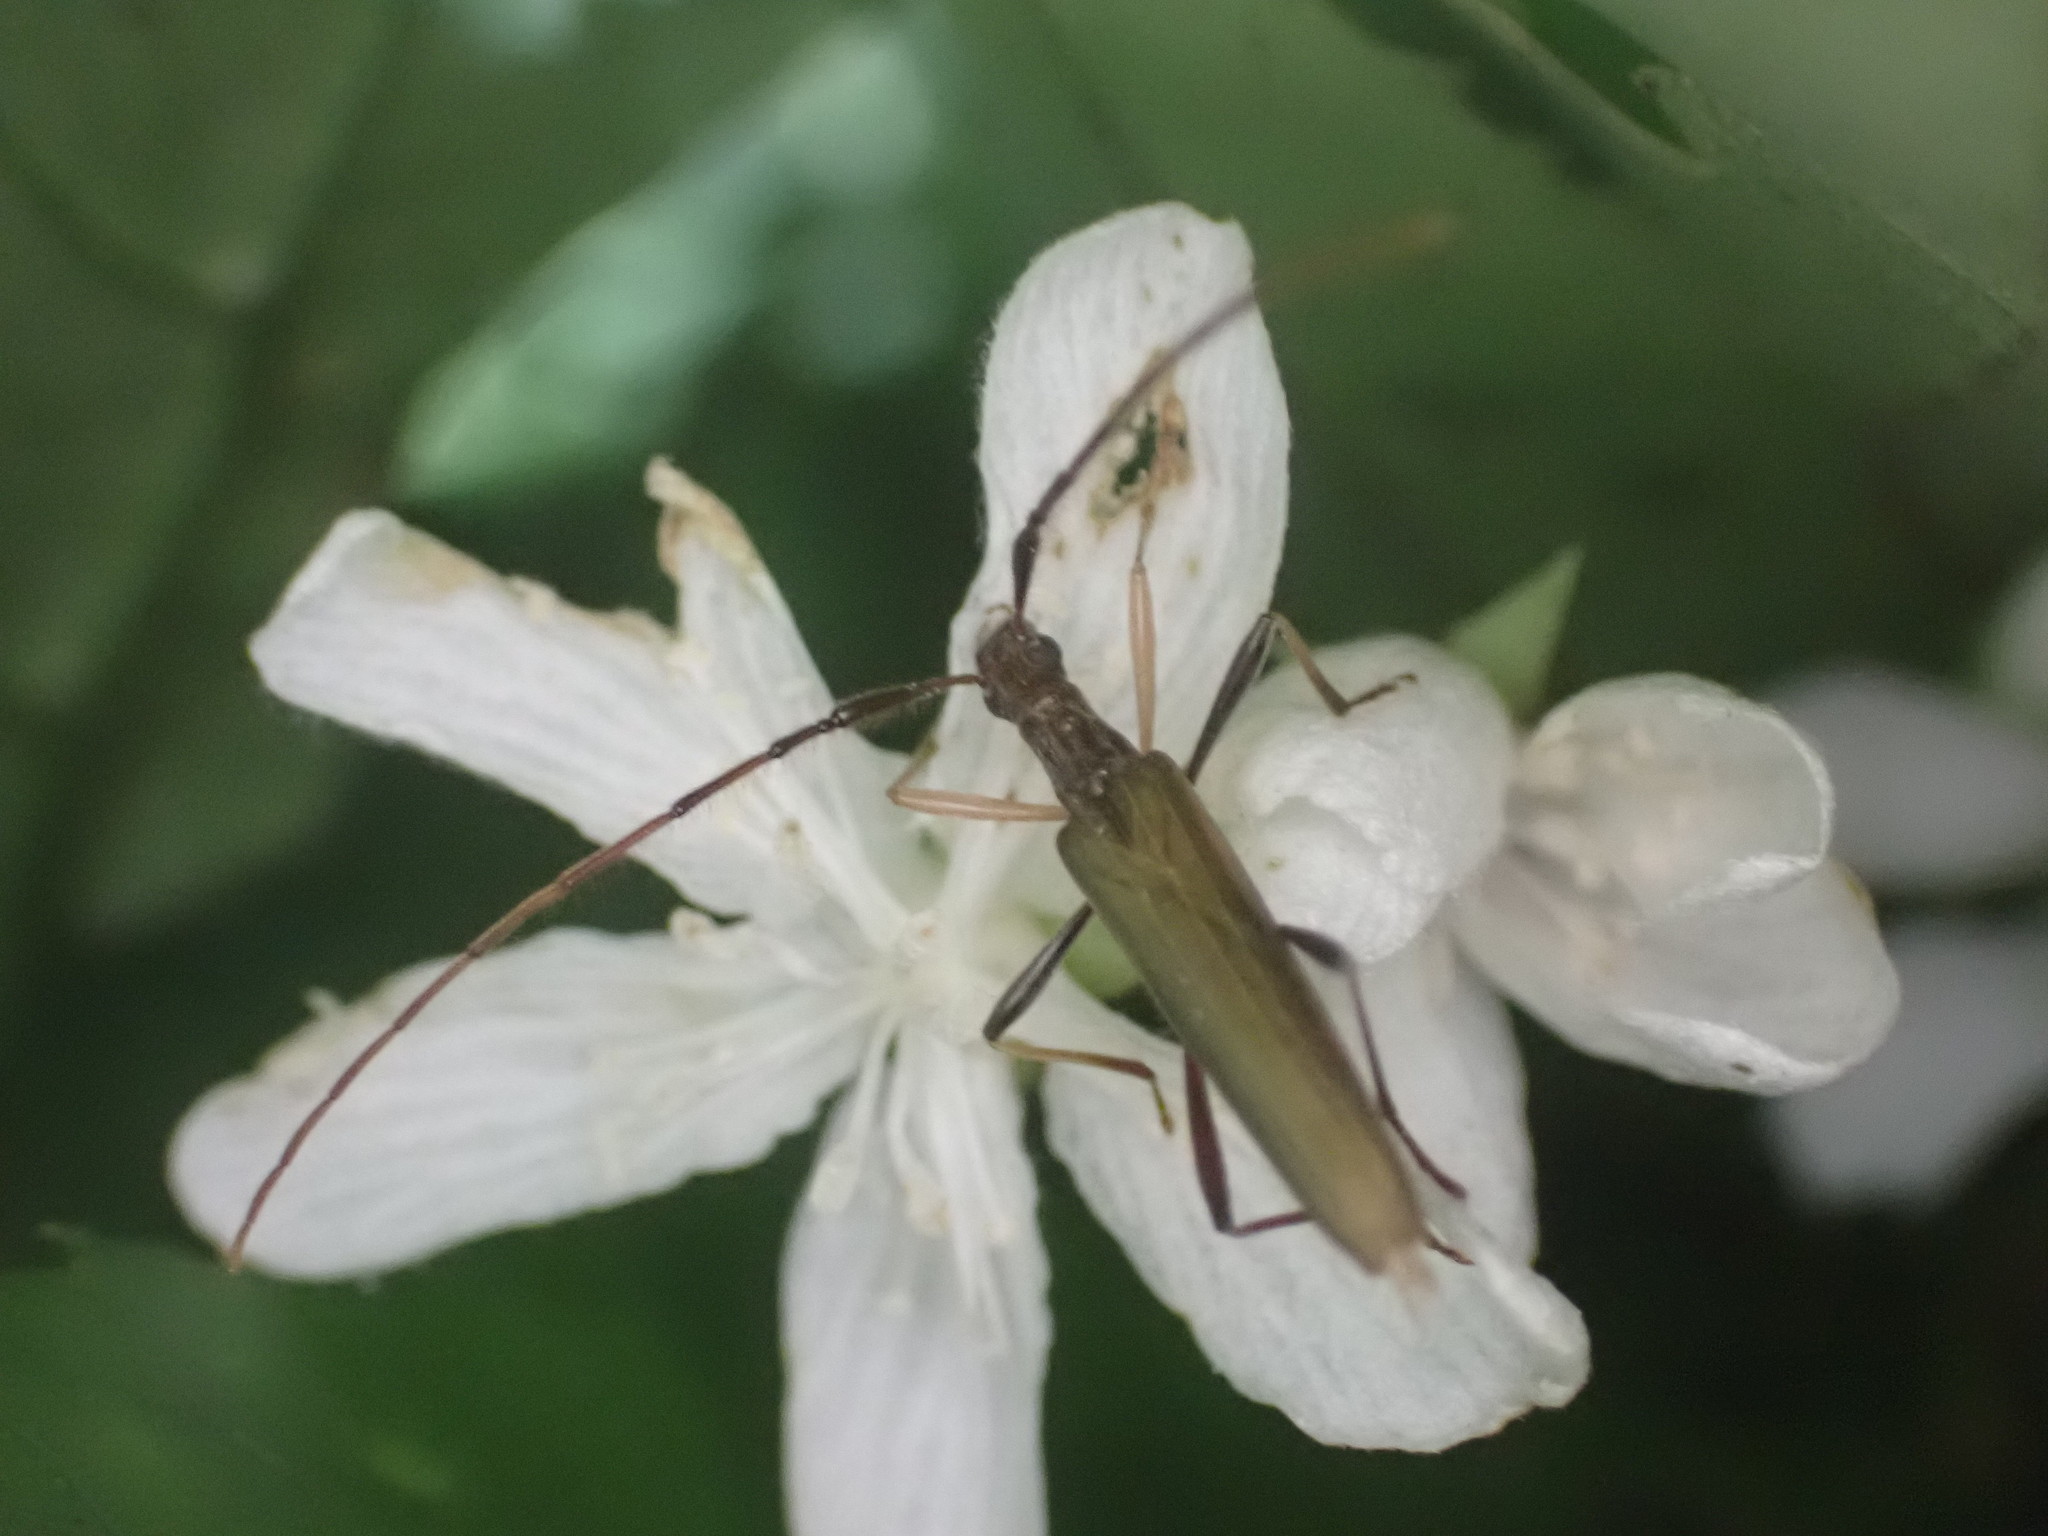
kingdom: Animalia
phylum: Arthropoda
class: Insecta
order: Coleoptera
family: Cerambycidae
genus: Stenopotes
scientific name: Stenopotes pallidus
